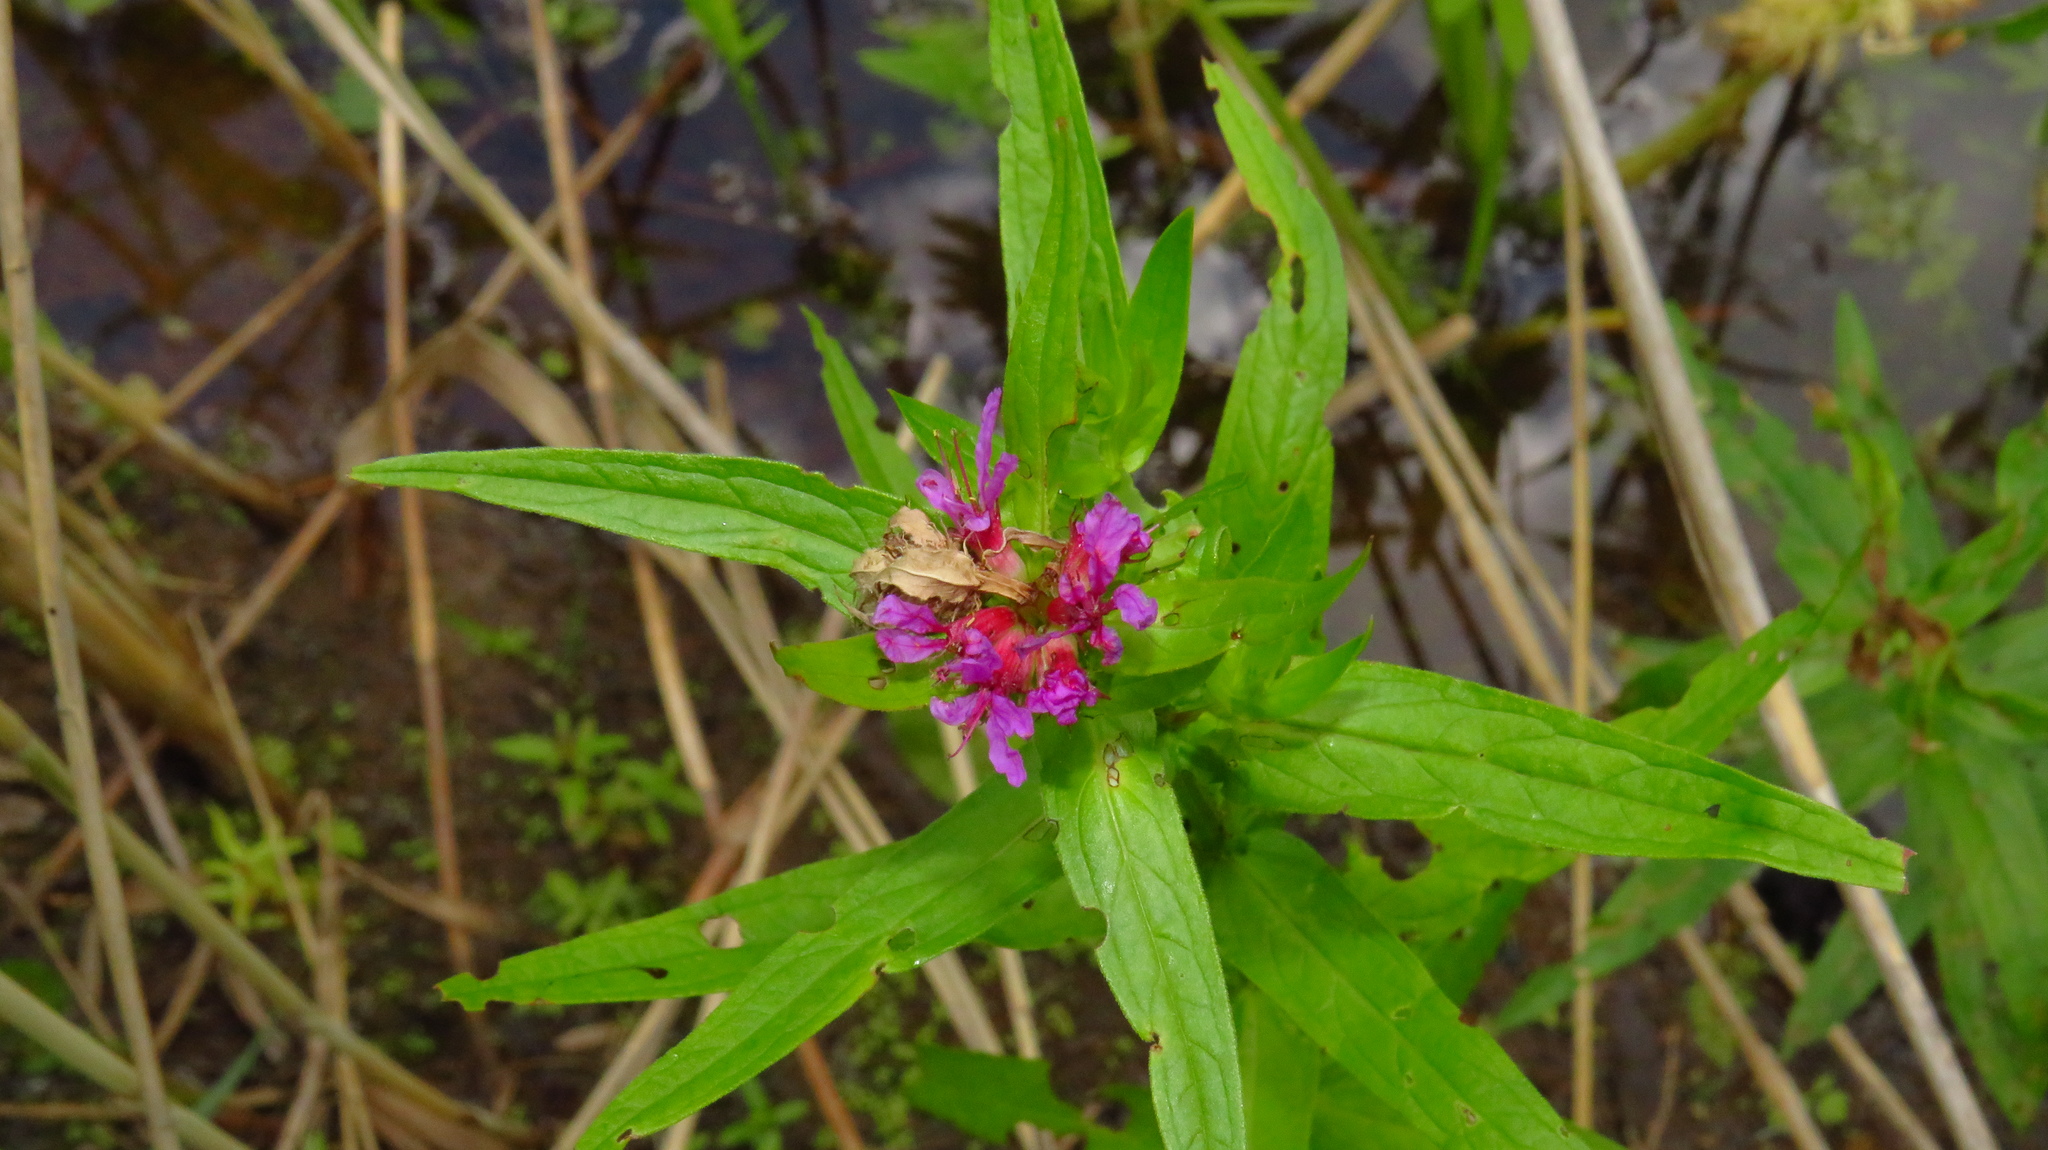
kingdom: Plantae
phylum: Tracheophyta
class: Magnoliopsida
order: Myrtales
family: Lythraceae
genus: Lythrum
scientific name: Lythrum salicaria
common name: Purple loosestrife
